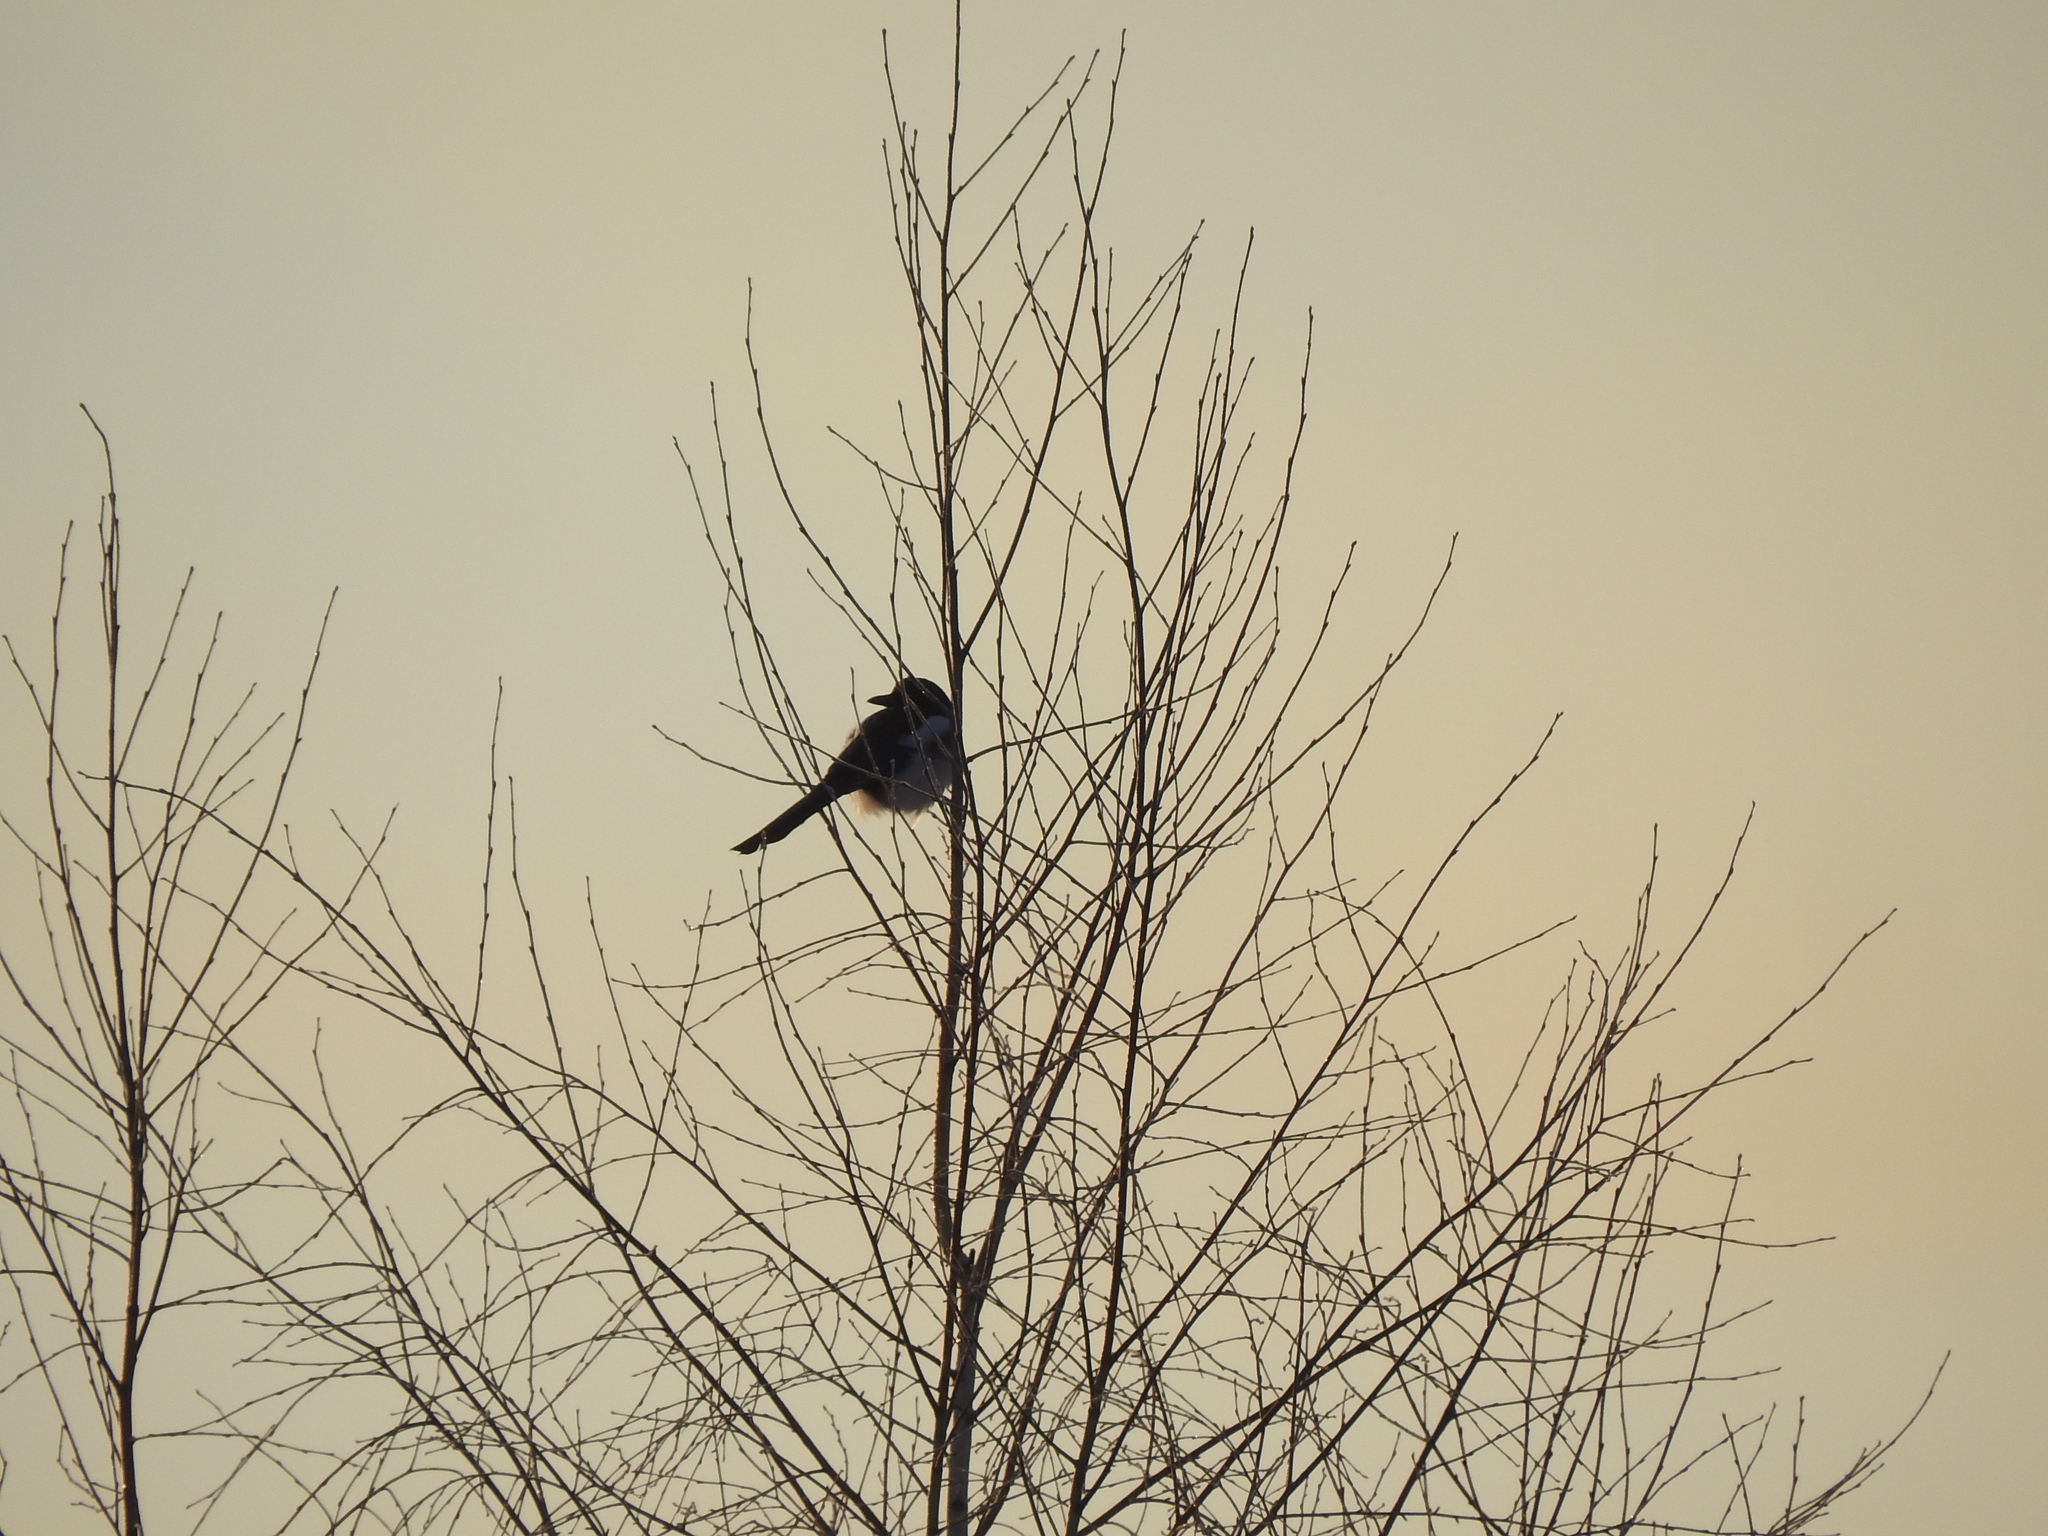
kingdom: Animalia
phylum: Chordata
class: Aves
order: Passeriformes
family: Corvidae
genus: Pica
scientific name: Pica pica
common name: Eurasian magpie
